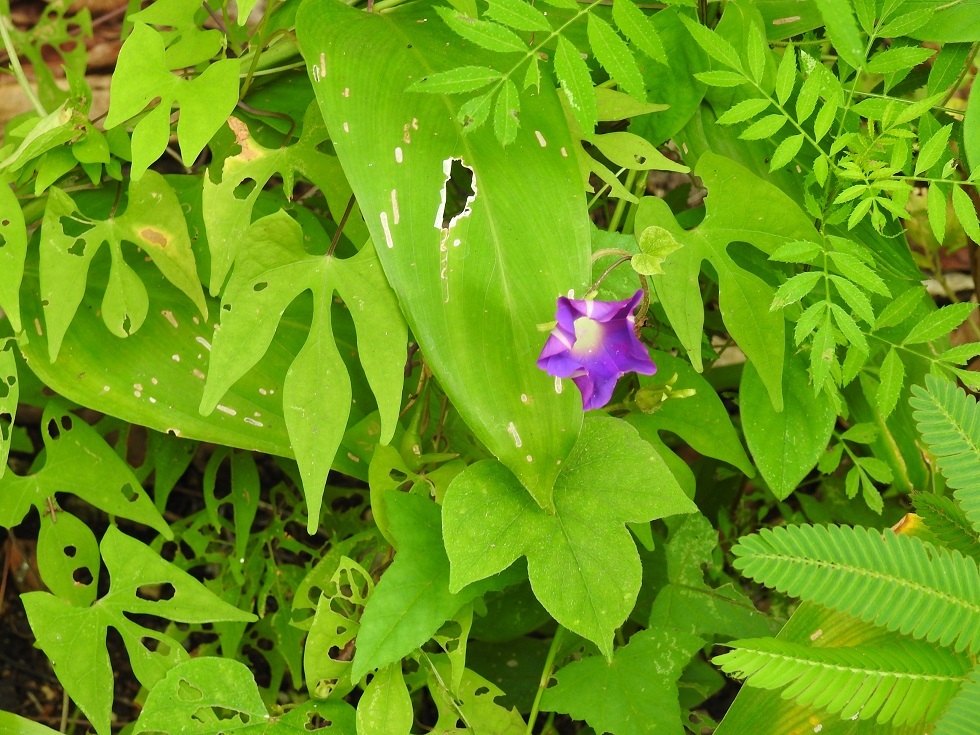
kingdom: Plantae
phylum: Tracheophyta
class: Magnoliopsida
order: Solanales
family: Convolvulaceae
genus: Ipomoea
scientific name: Ipomoea purpurea
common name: Common morning-glory
